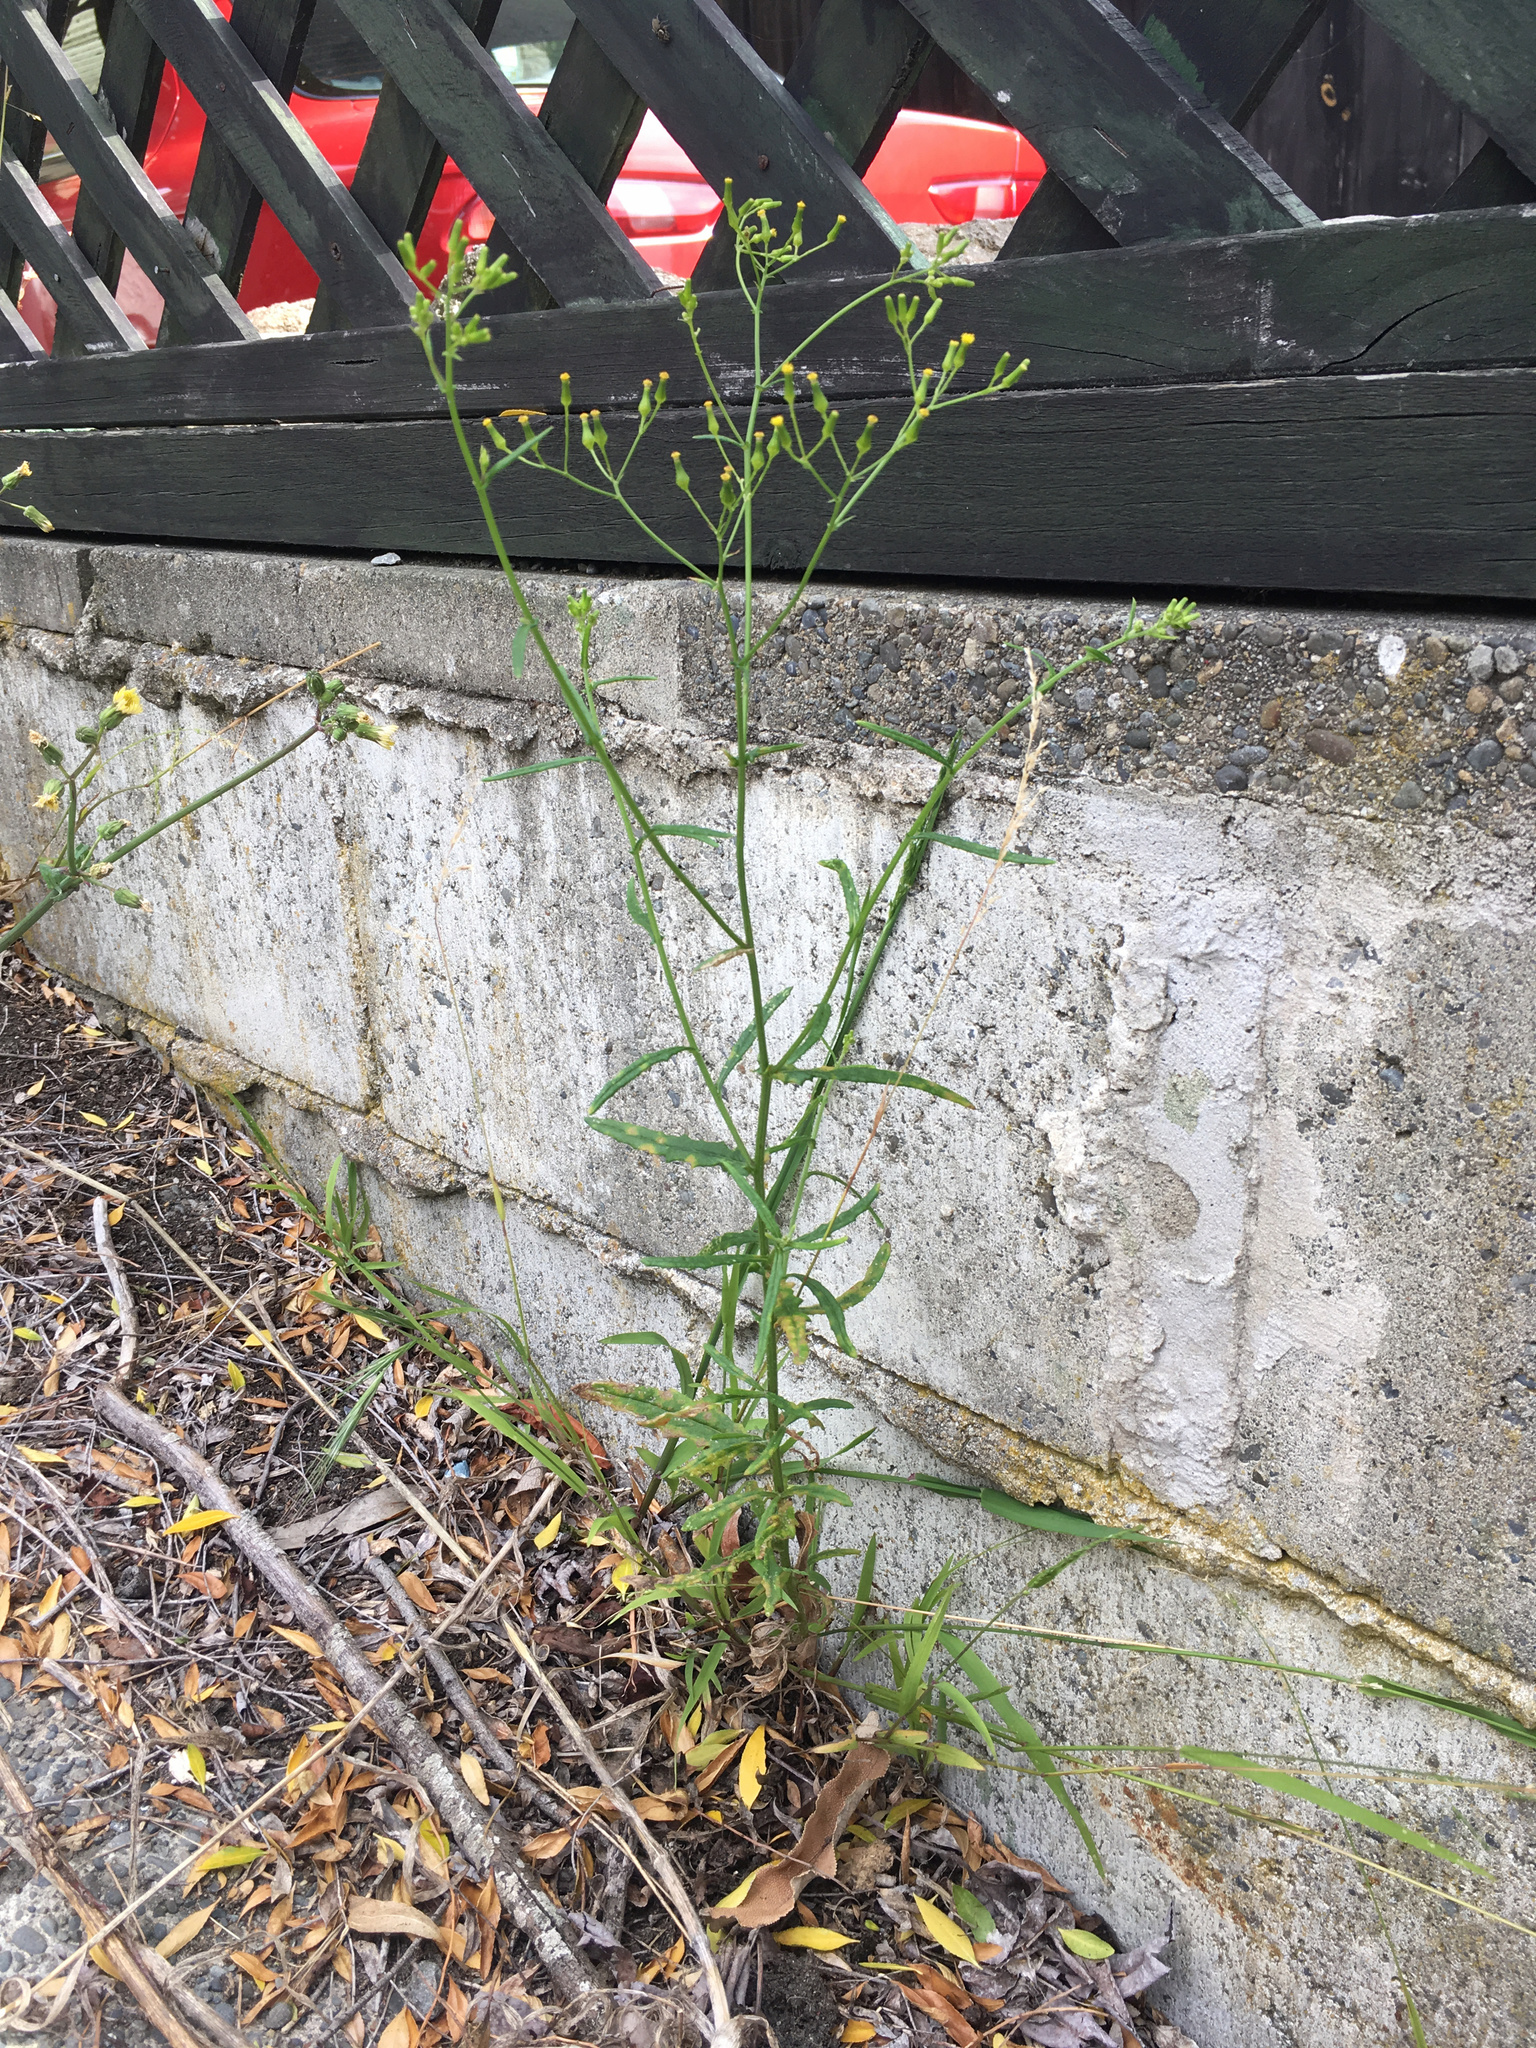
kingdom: Plantae
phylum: Tracheophyta
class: Magnoliopsida
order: Asterales
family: Asteraceae
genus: Senecio
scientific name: Senecio hispidulus
